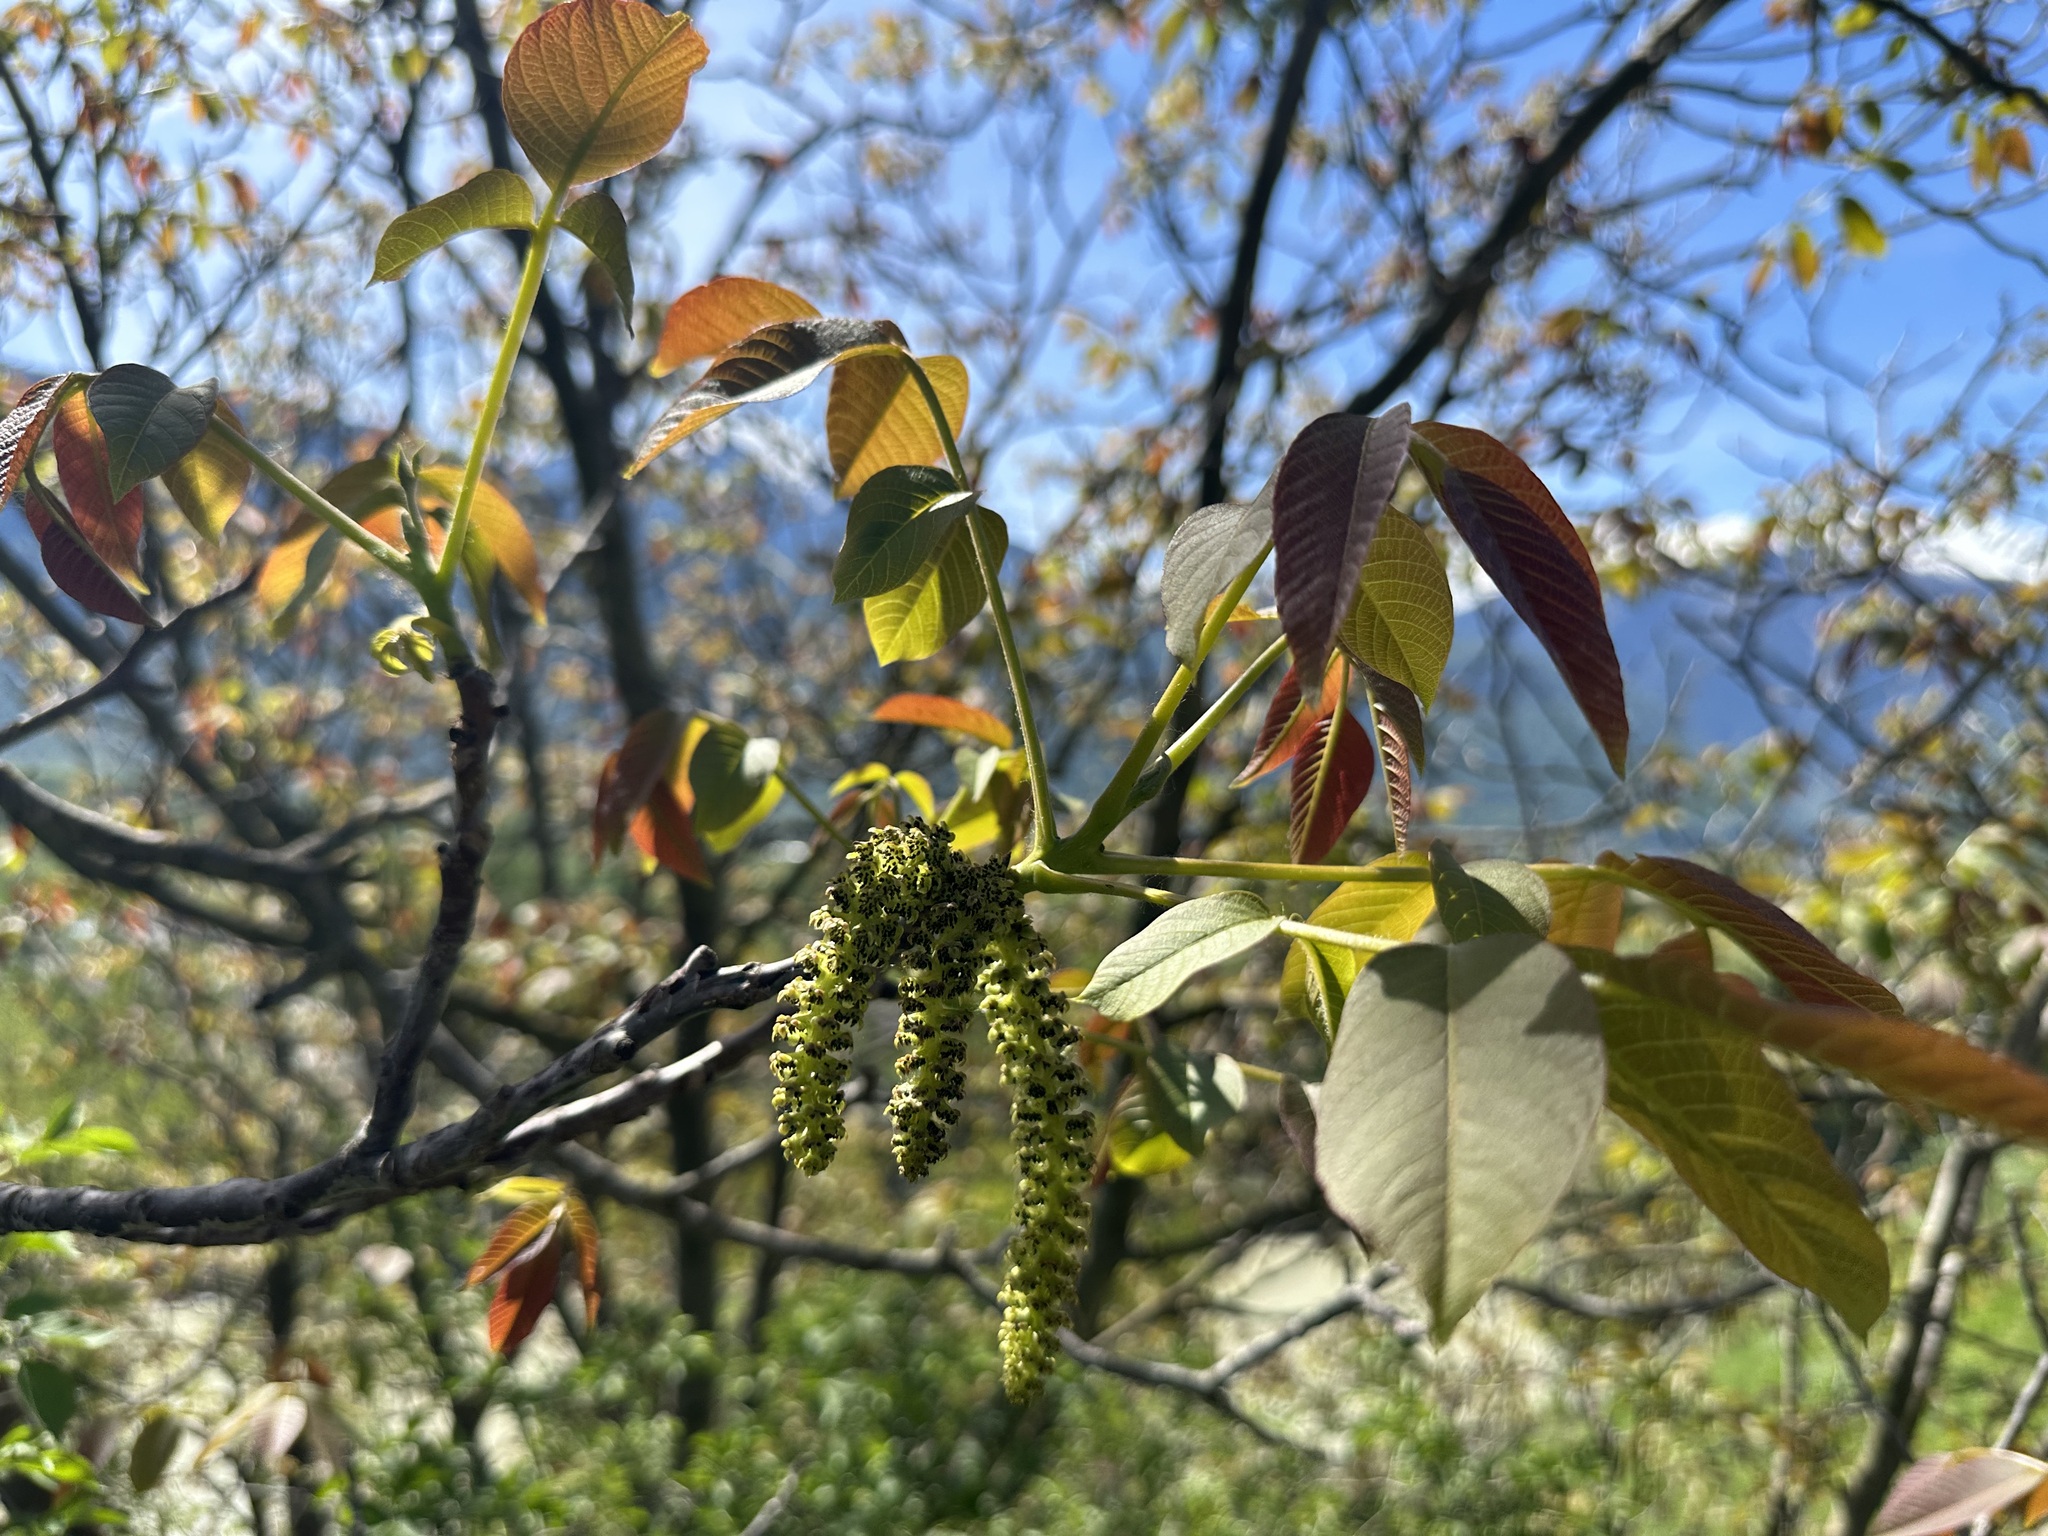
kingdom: Plantae
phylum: Tracheophyta
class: Magnoliopsida
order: Fagales
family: Juglandaceae
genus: Juglans
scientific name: Juglans regia
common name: Walnut
